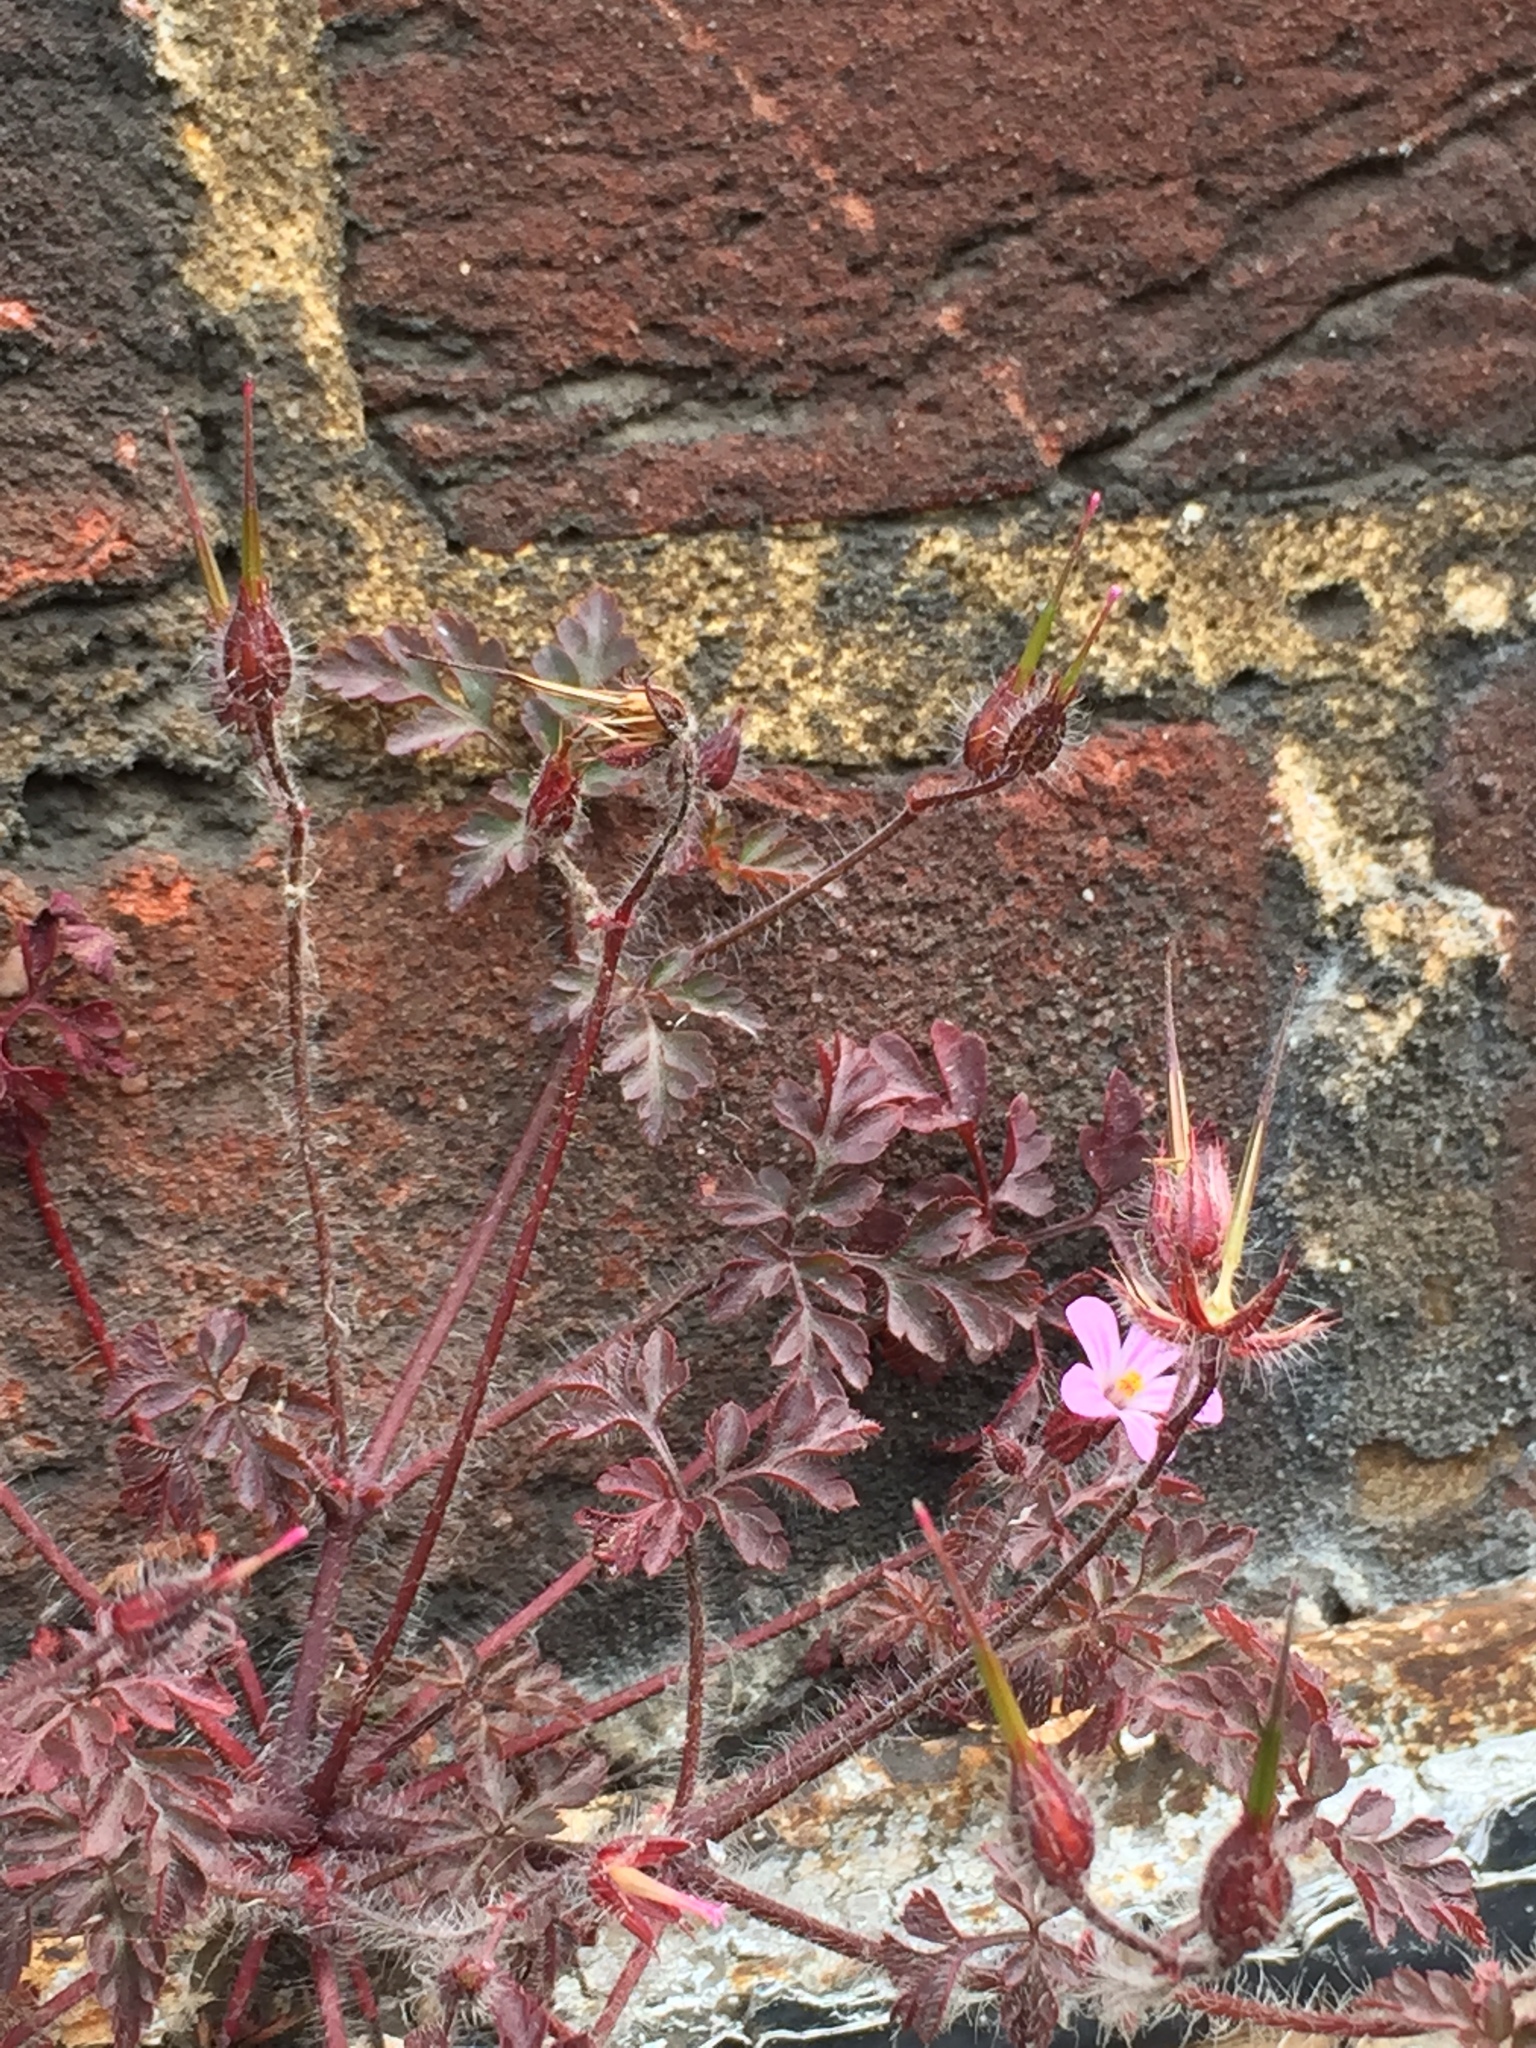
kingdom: Plantae
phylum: Tracheophyta
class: Magnoliopsida
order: Geraniales
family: Geraniaceae
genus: Geranium
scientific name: Geranium robertianum
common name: Herb-robert
